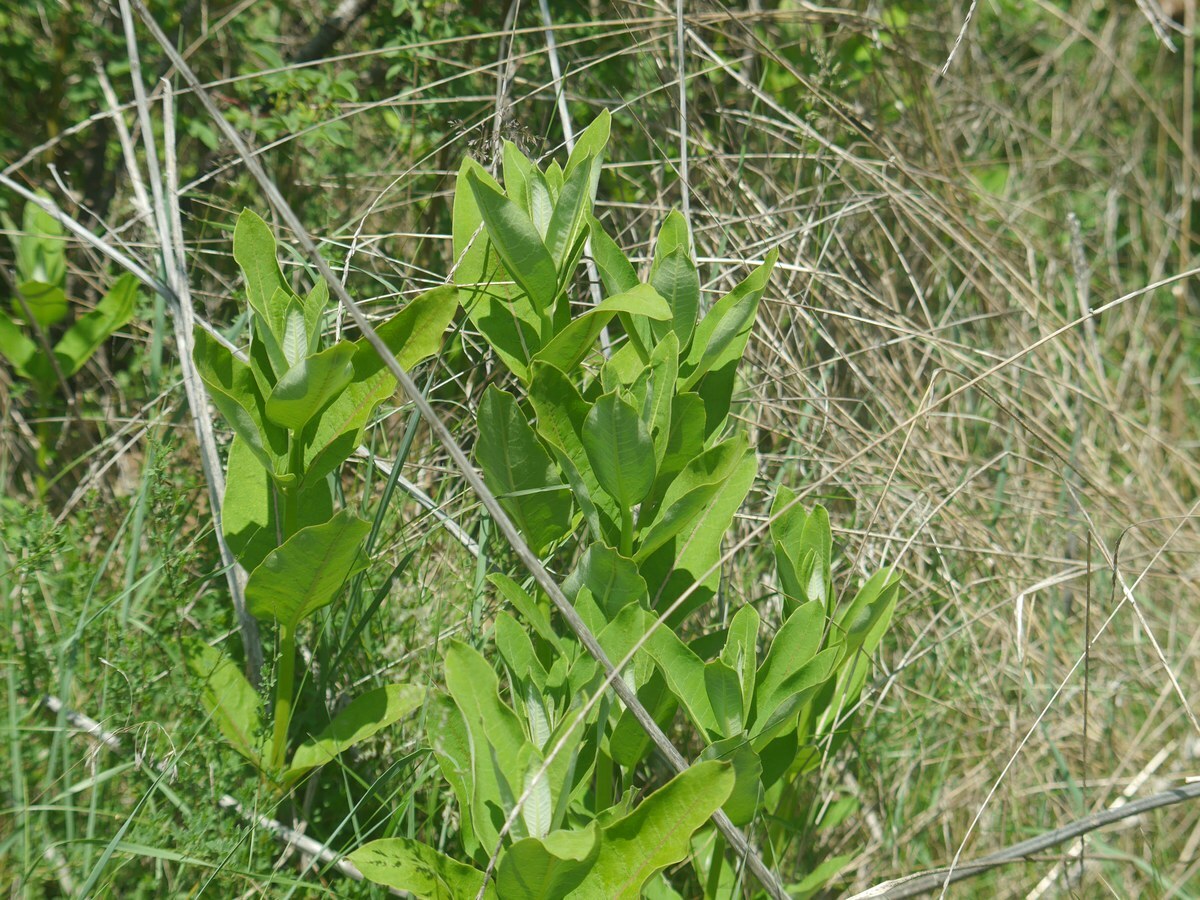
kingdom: Plantae
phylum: Tracheophyta
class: Magnoliopsida
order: Gentianales
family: Apocynaceae
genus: Asclepias
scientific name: Asclepias syriaca
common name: Common milkweed
